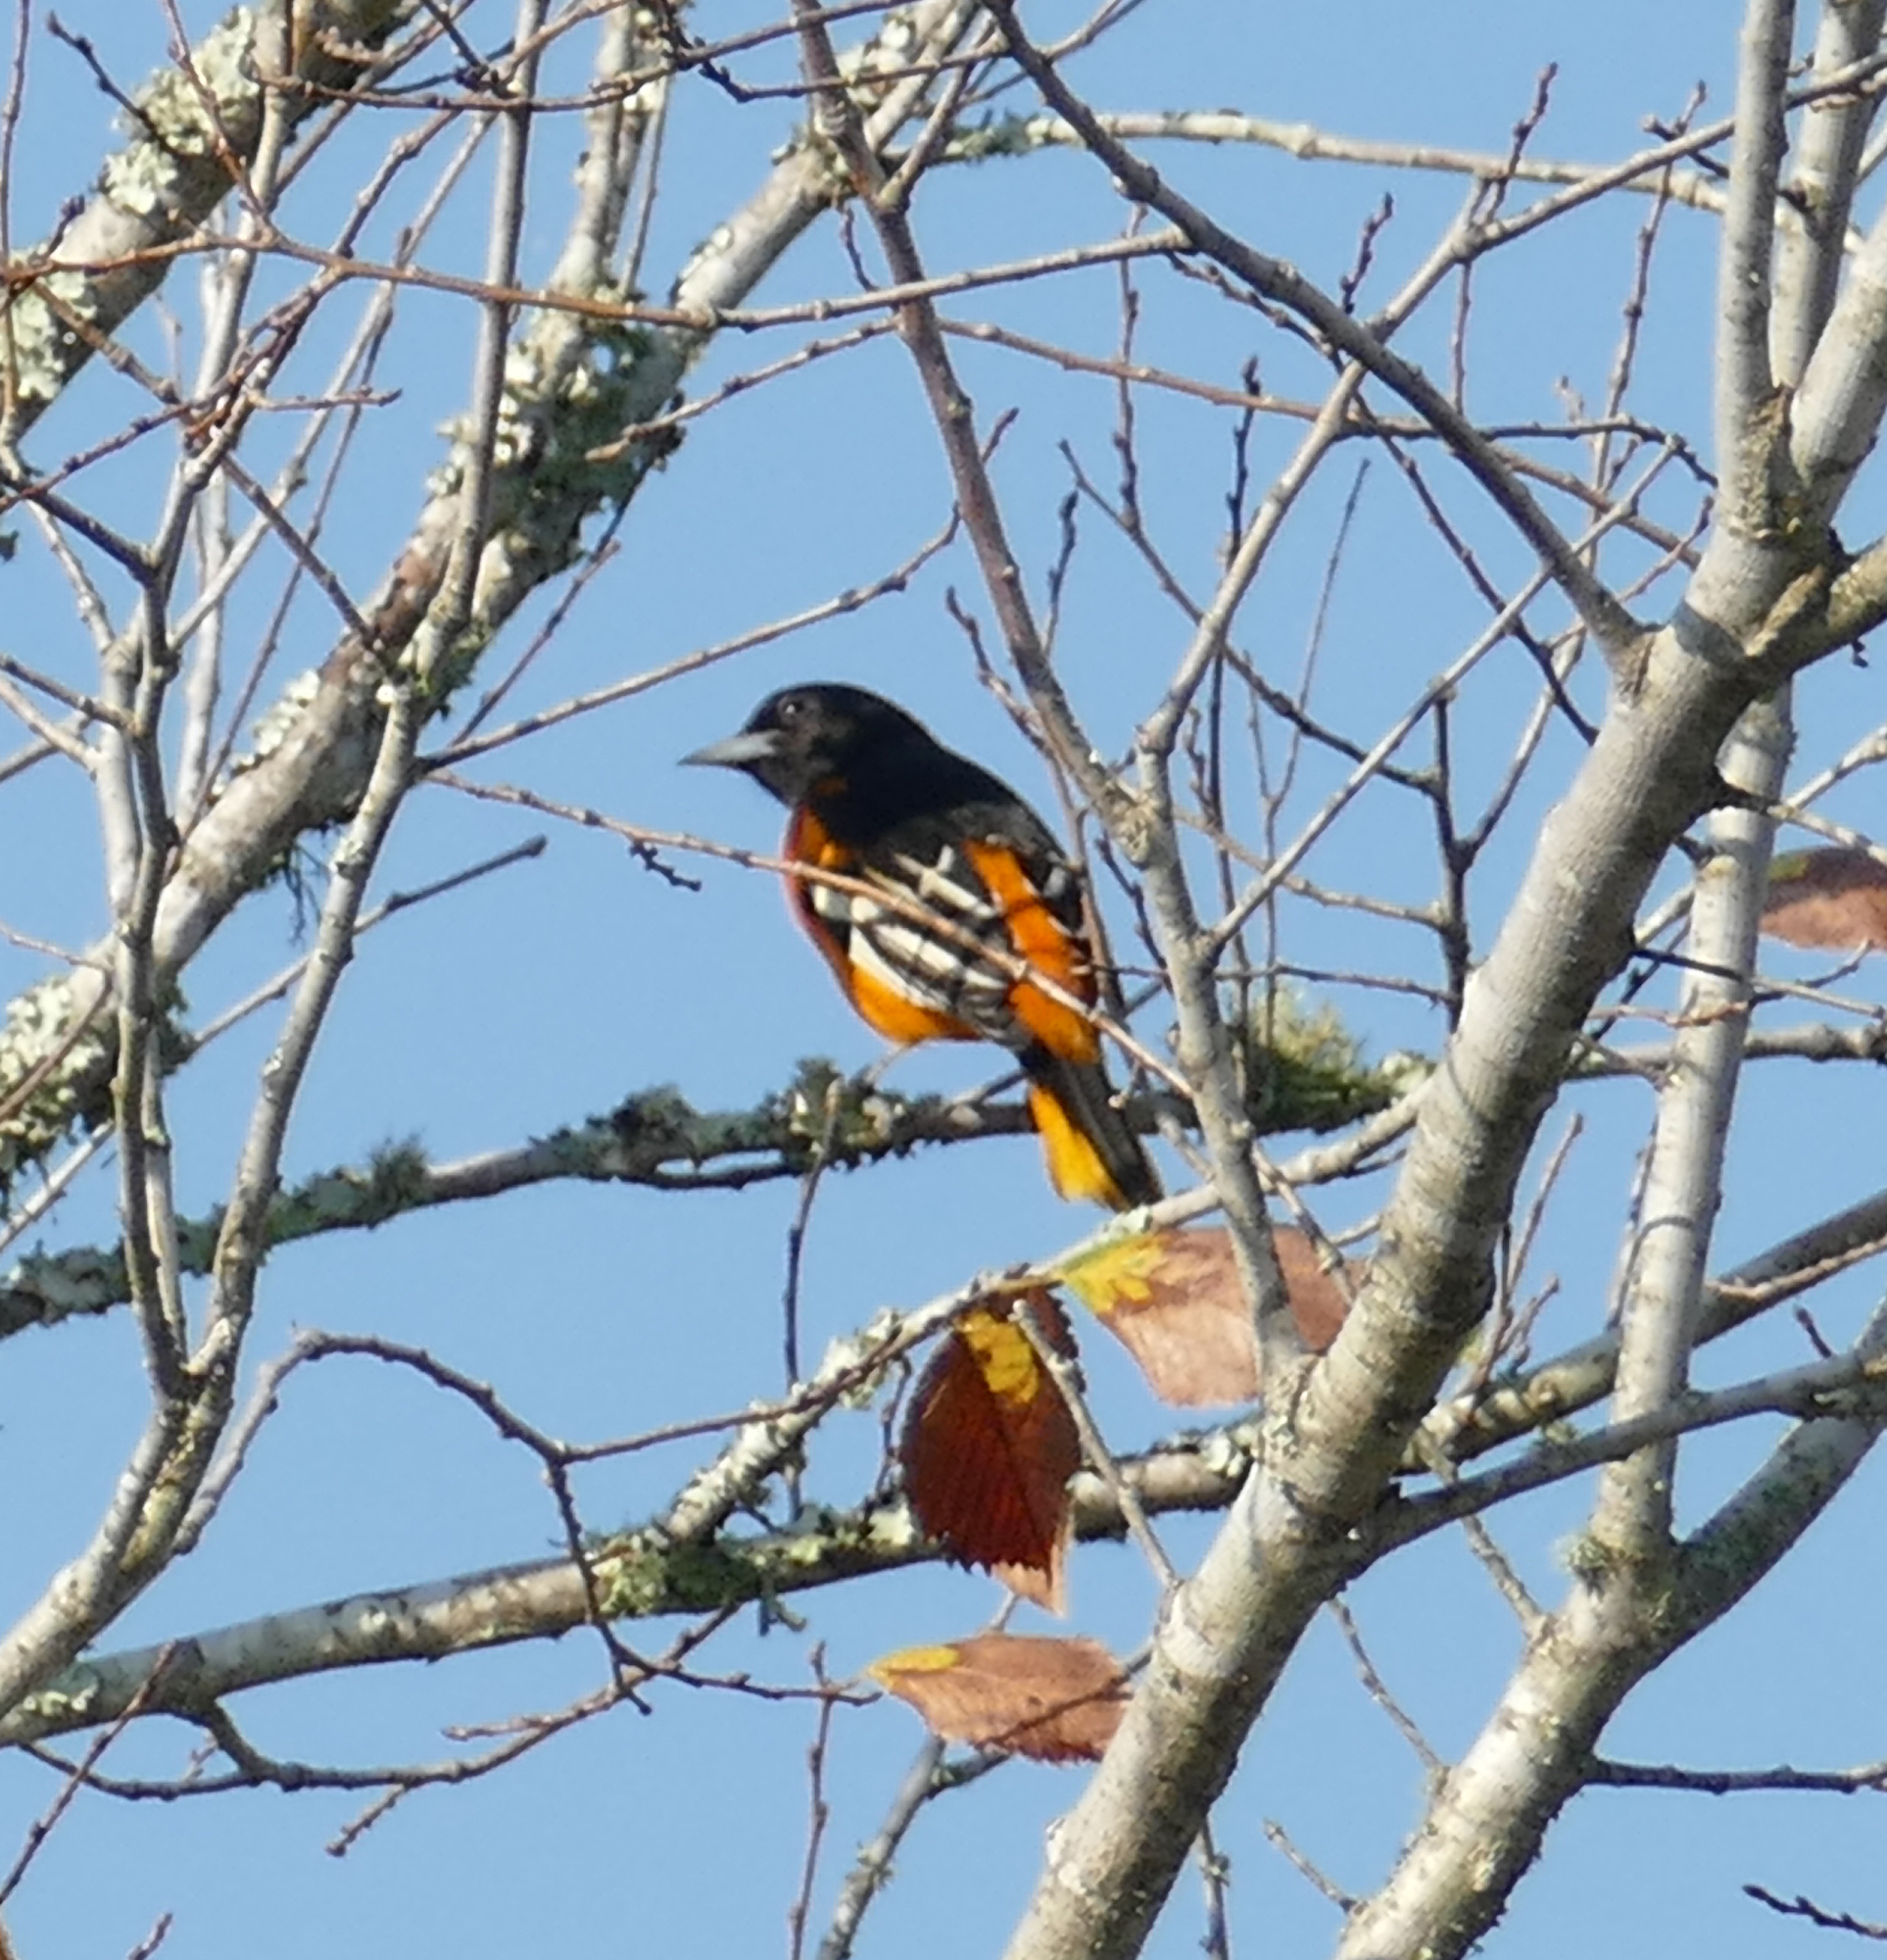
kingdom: Animalia
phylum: Chordata
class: Aves
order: Passeriformes
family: Icteridae
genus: Icterus
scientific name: Icterus galbula
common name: Baltimore oriole
